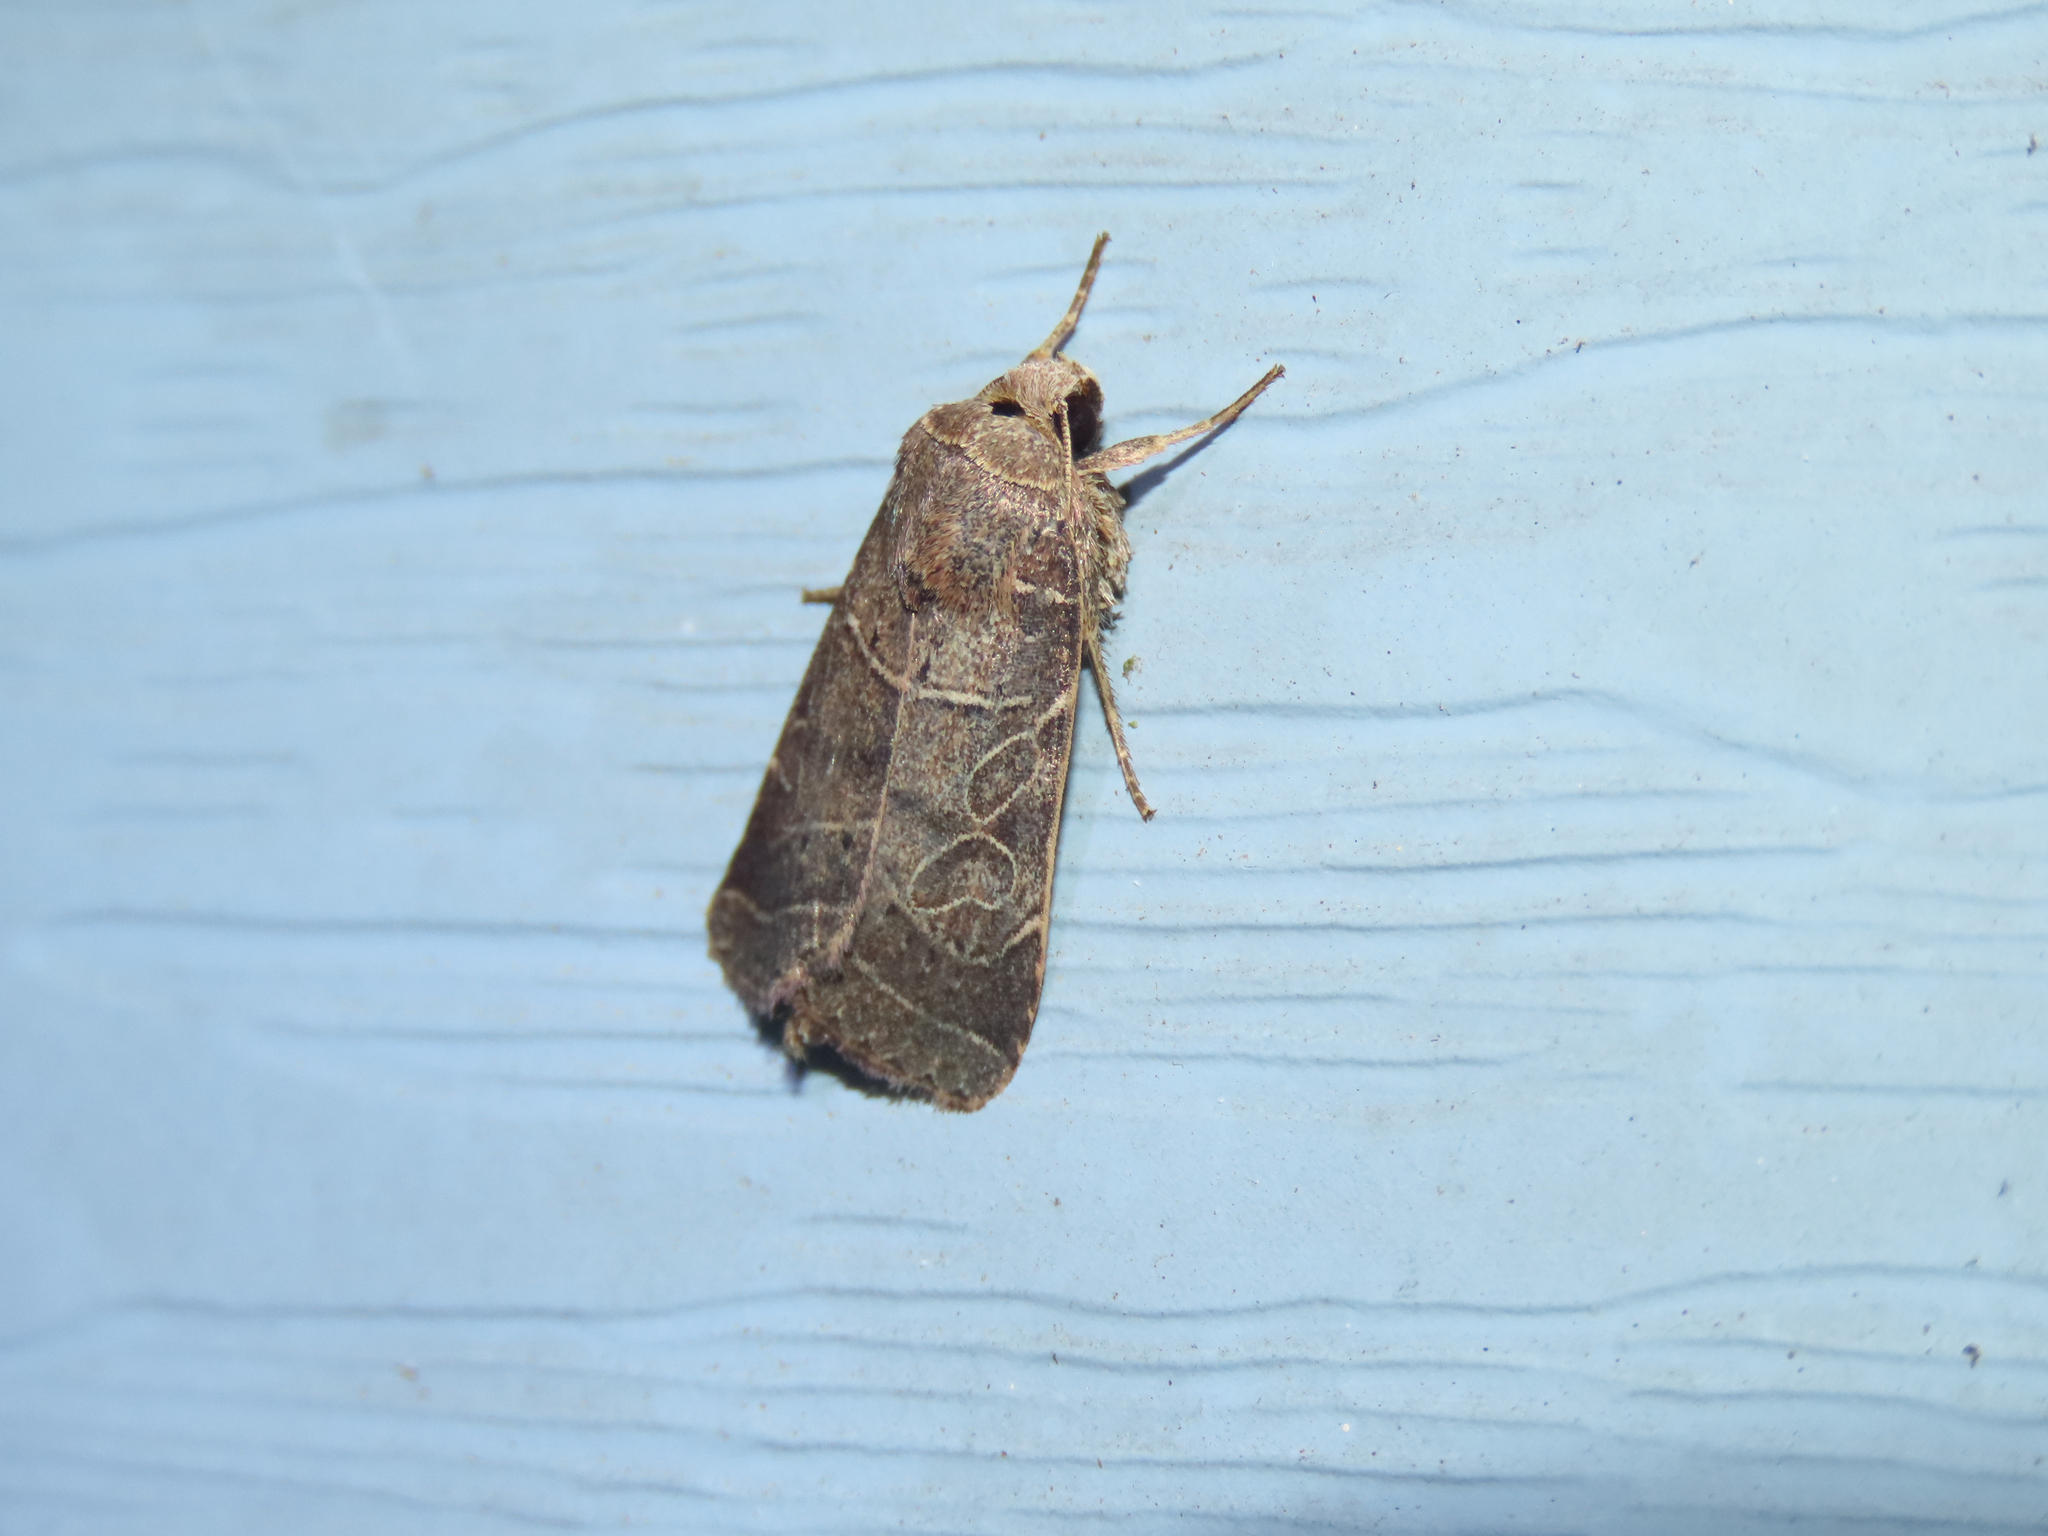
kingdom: Animalia
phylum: Arthropoda
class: Insecta
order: Lepidoptera
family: Noctuidae
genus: Orthodes
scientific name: Orthodes majuscula
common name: Rustic quaker
